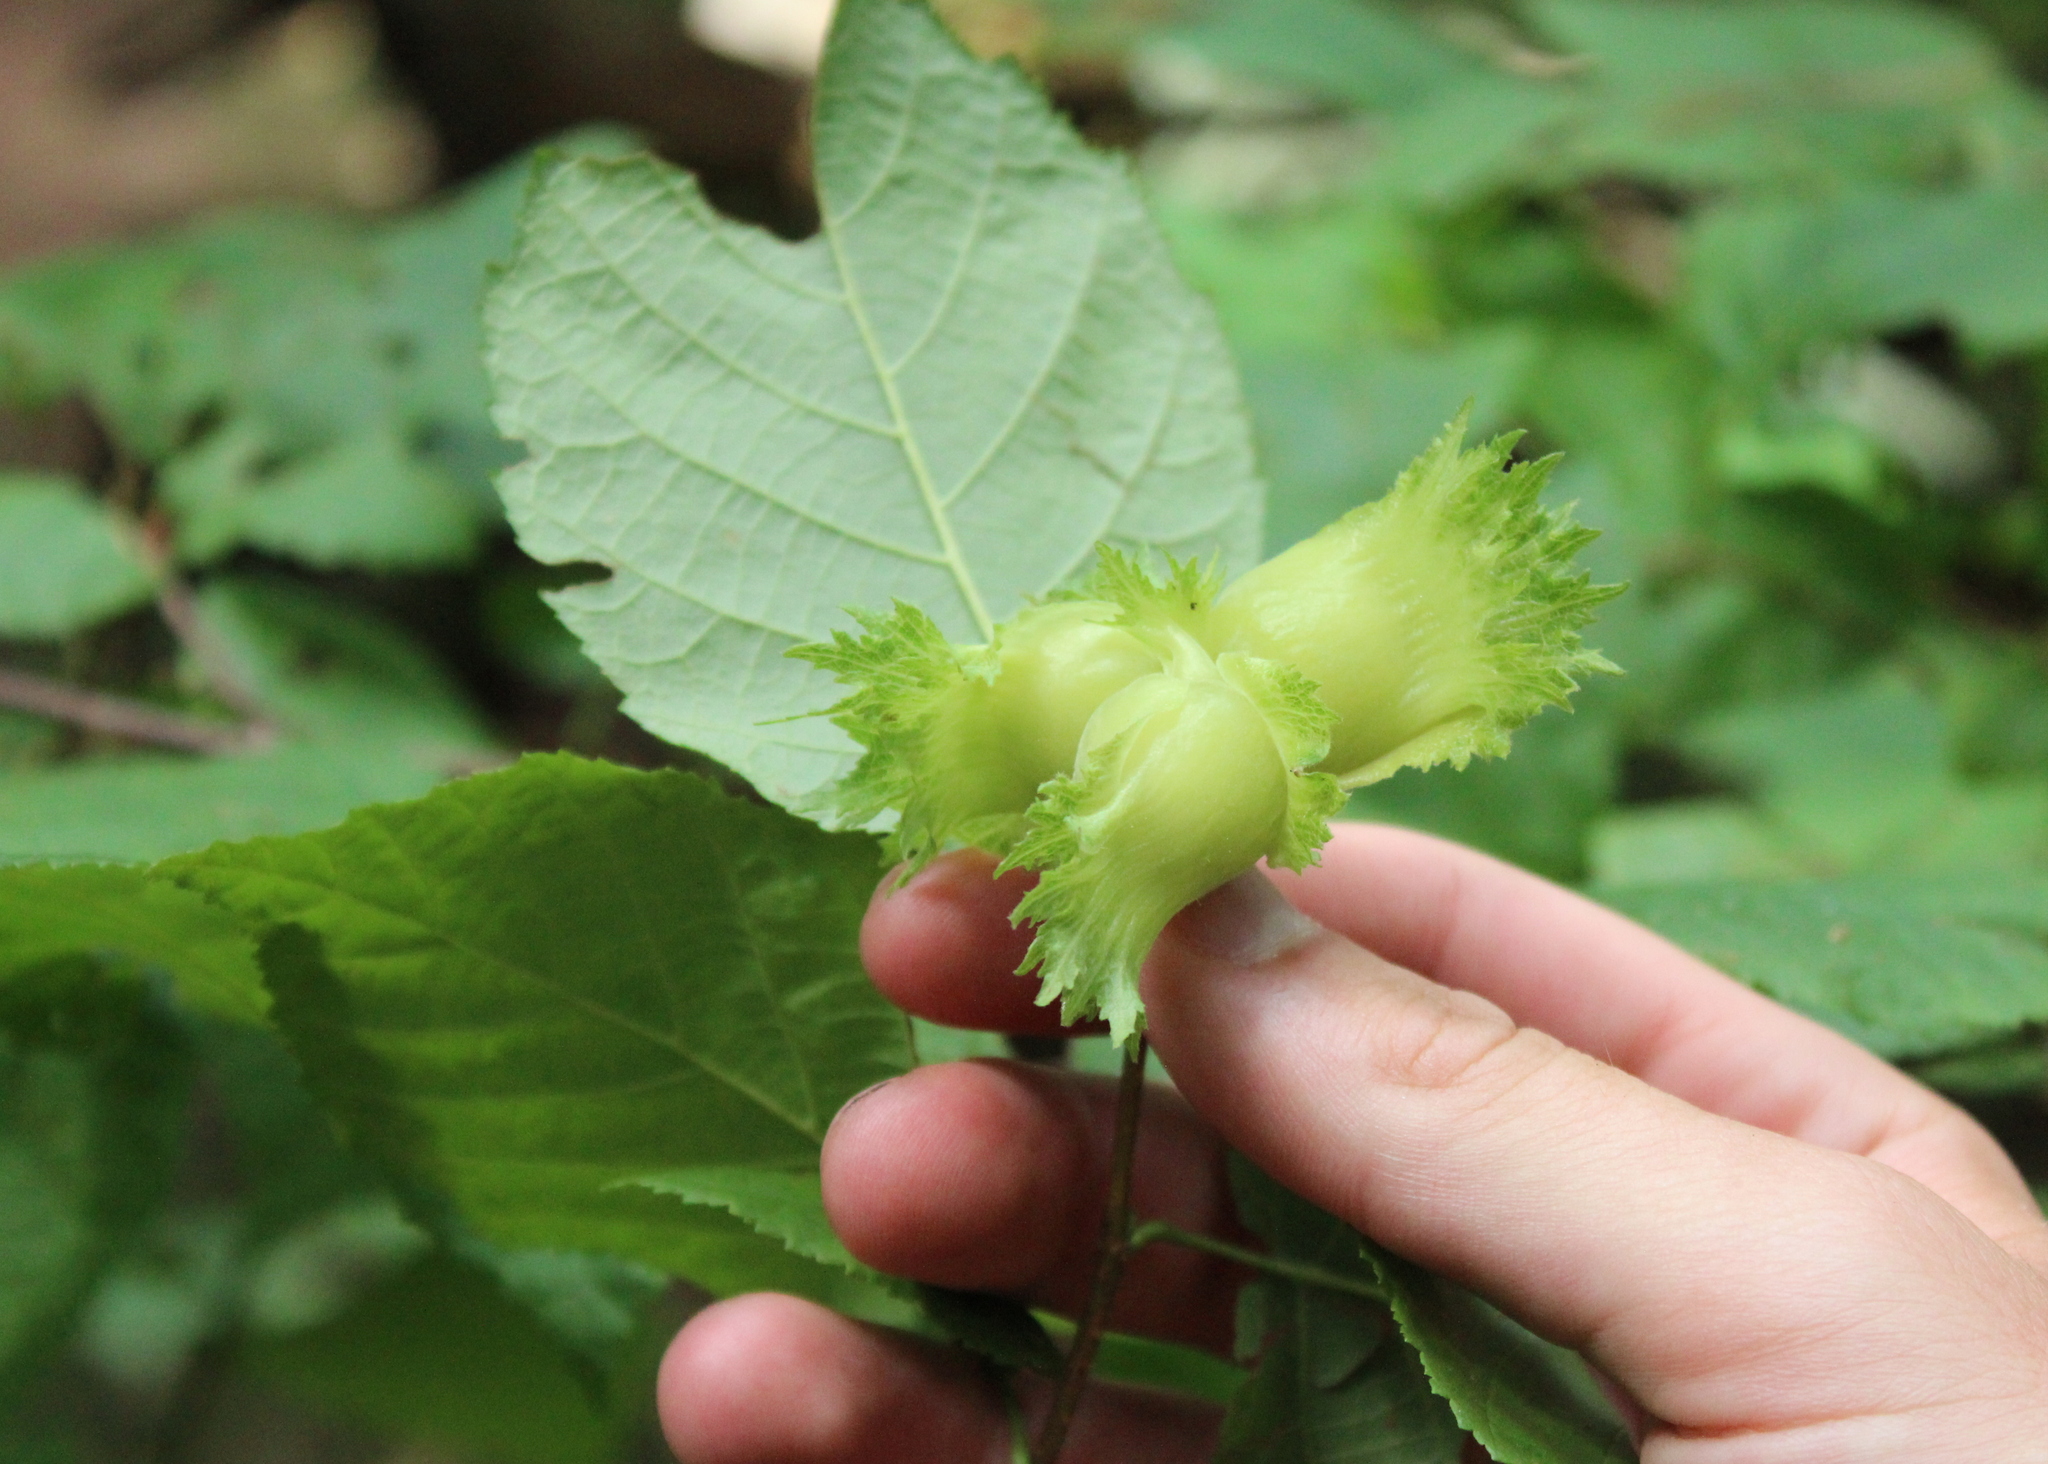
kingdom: Plantae
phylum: Tracheophyta
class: Magnoliopsida
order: Fagales
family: Betulaceae
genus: Corylus
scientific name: Corylus americana
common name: American hazel
